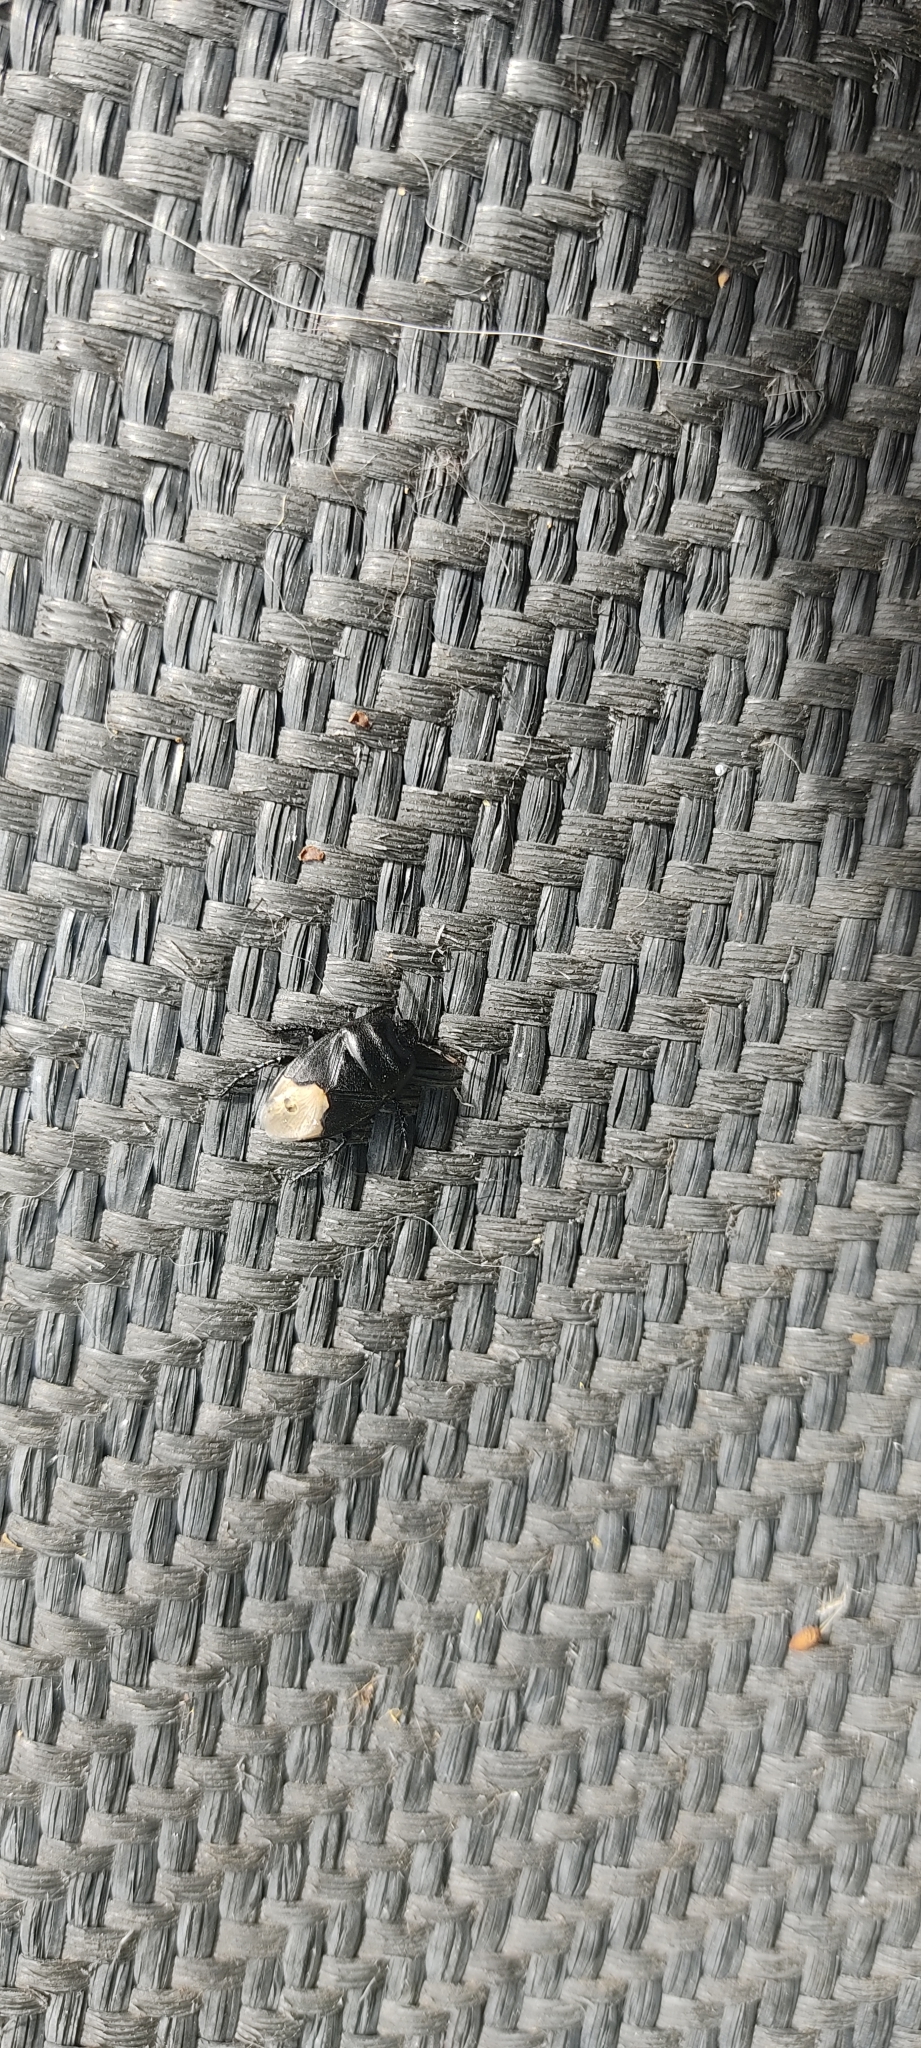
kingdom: Animalia
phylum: Arthropoda
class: Insecta
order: Hemiptera
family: Cydnidae
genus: Cydnus
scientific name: Cydnus aterrimus
